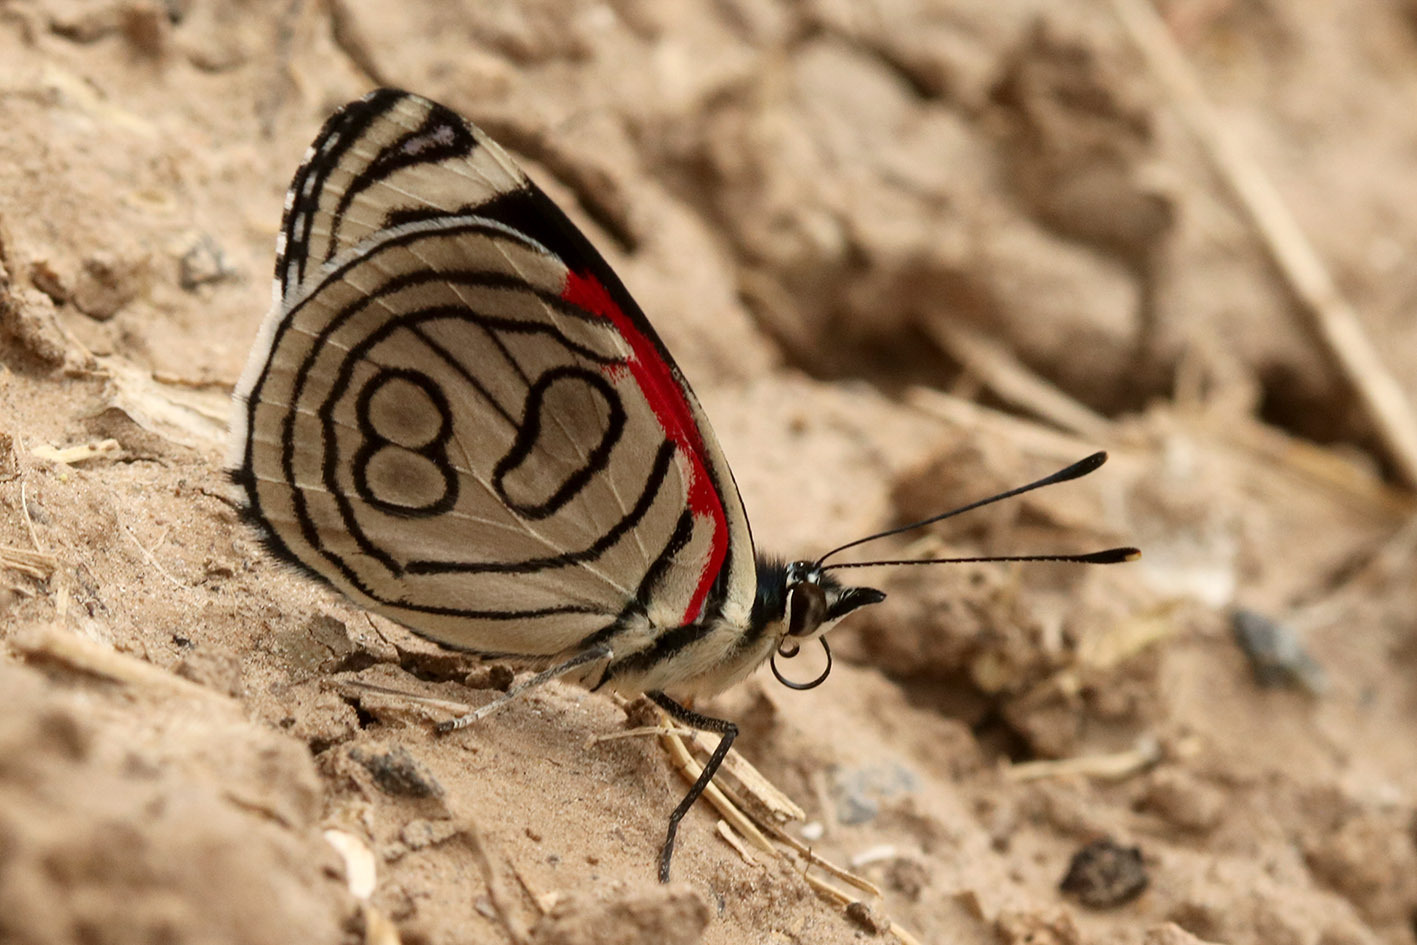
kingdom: Animalia
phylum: Arthropoda
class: Insecta
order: Lepidoptera
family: Nymphalidae
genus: Diaethria
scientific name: Diaethria candrena
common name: Number eighty
